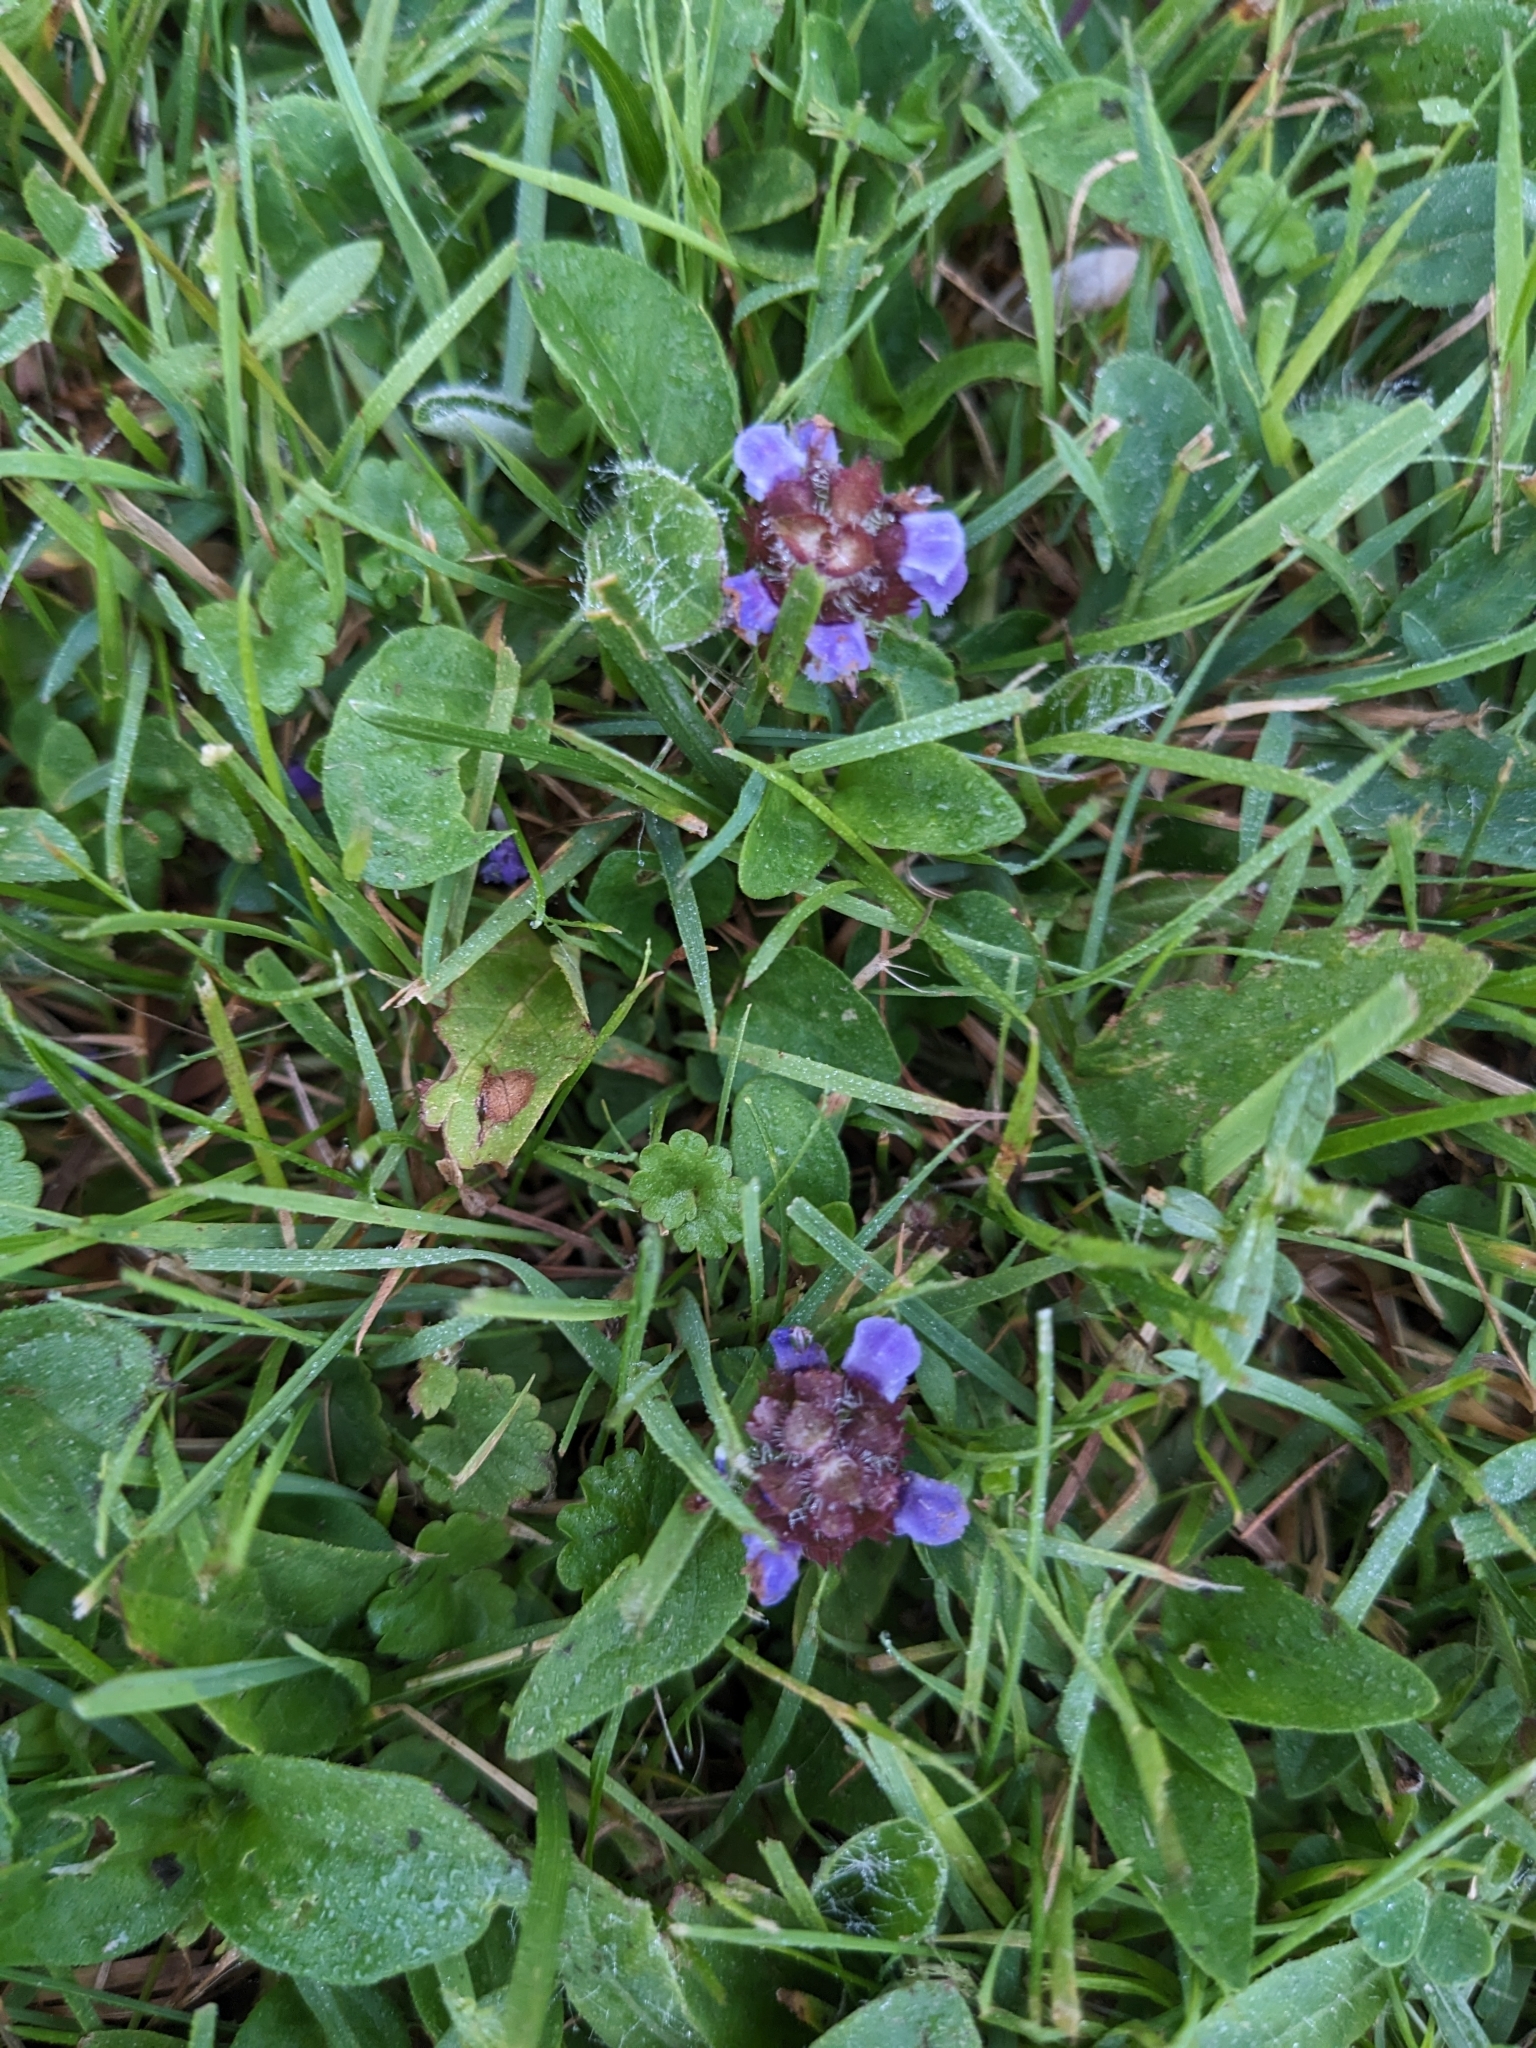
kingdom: Plantae
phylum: Tracheophyta
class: Magnoliopsida
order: Lamiales
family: Lamiaceae
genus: Prunella
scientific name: Prunella vulgaris
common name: Heal-all
